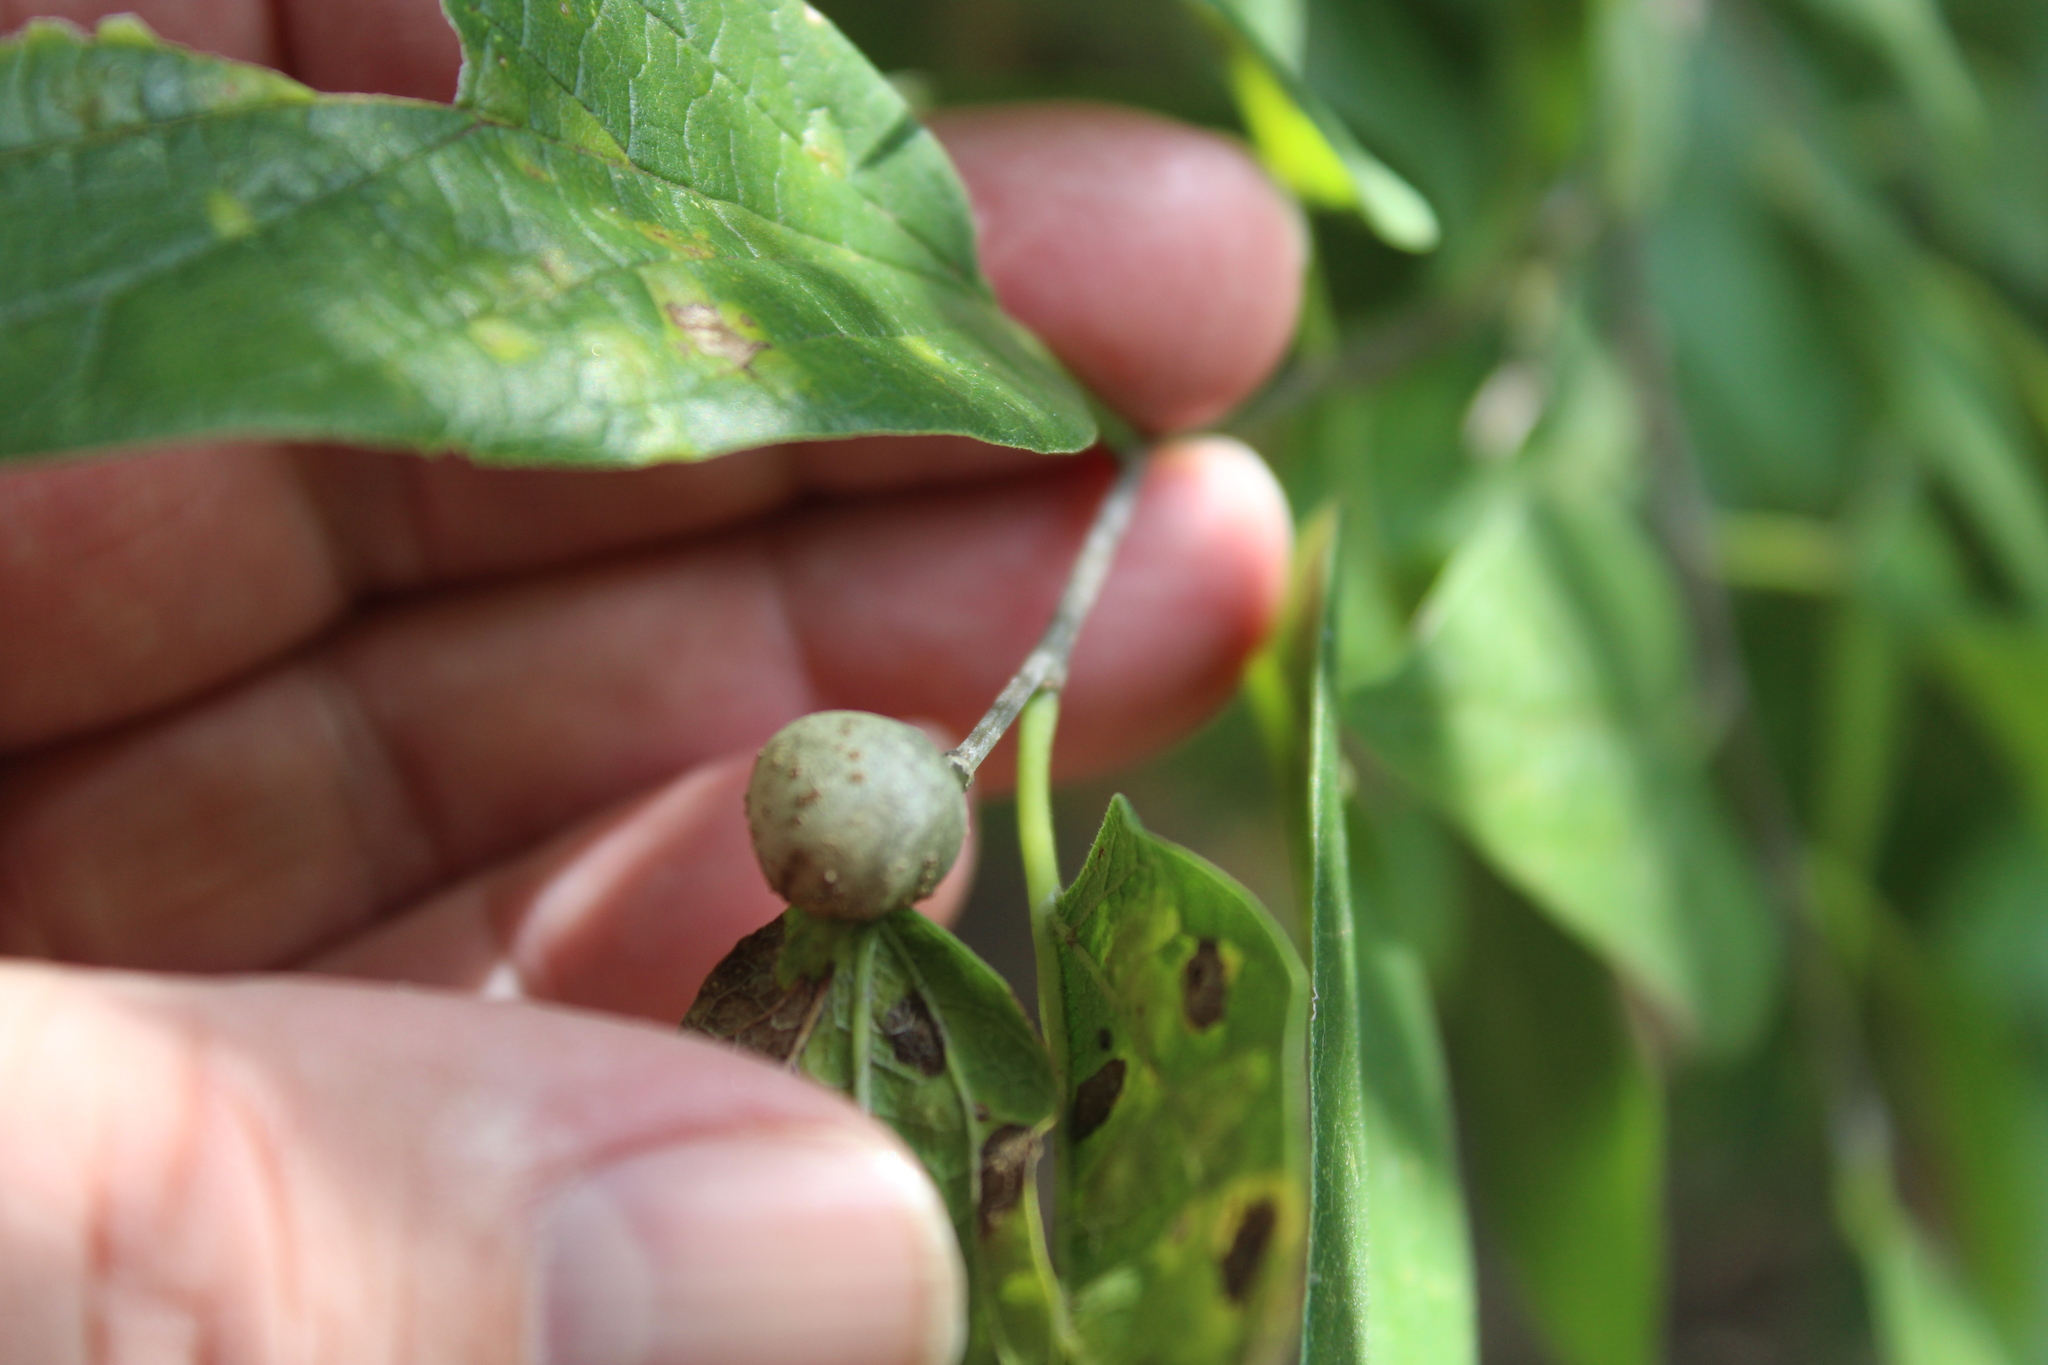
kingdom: Animalia
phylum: Arthropoda
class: Insecta
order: Hemiptera
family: Aphalaridae
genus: Pachypsylla
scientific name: Pachypsylla venusta
